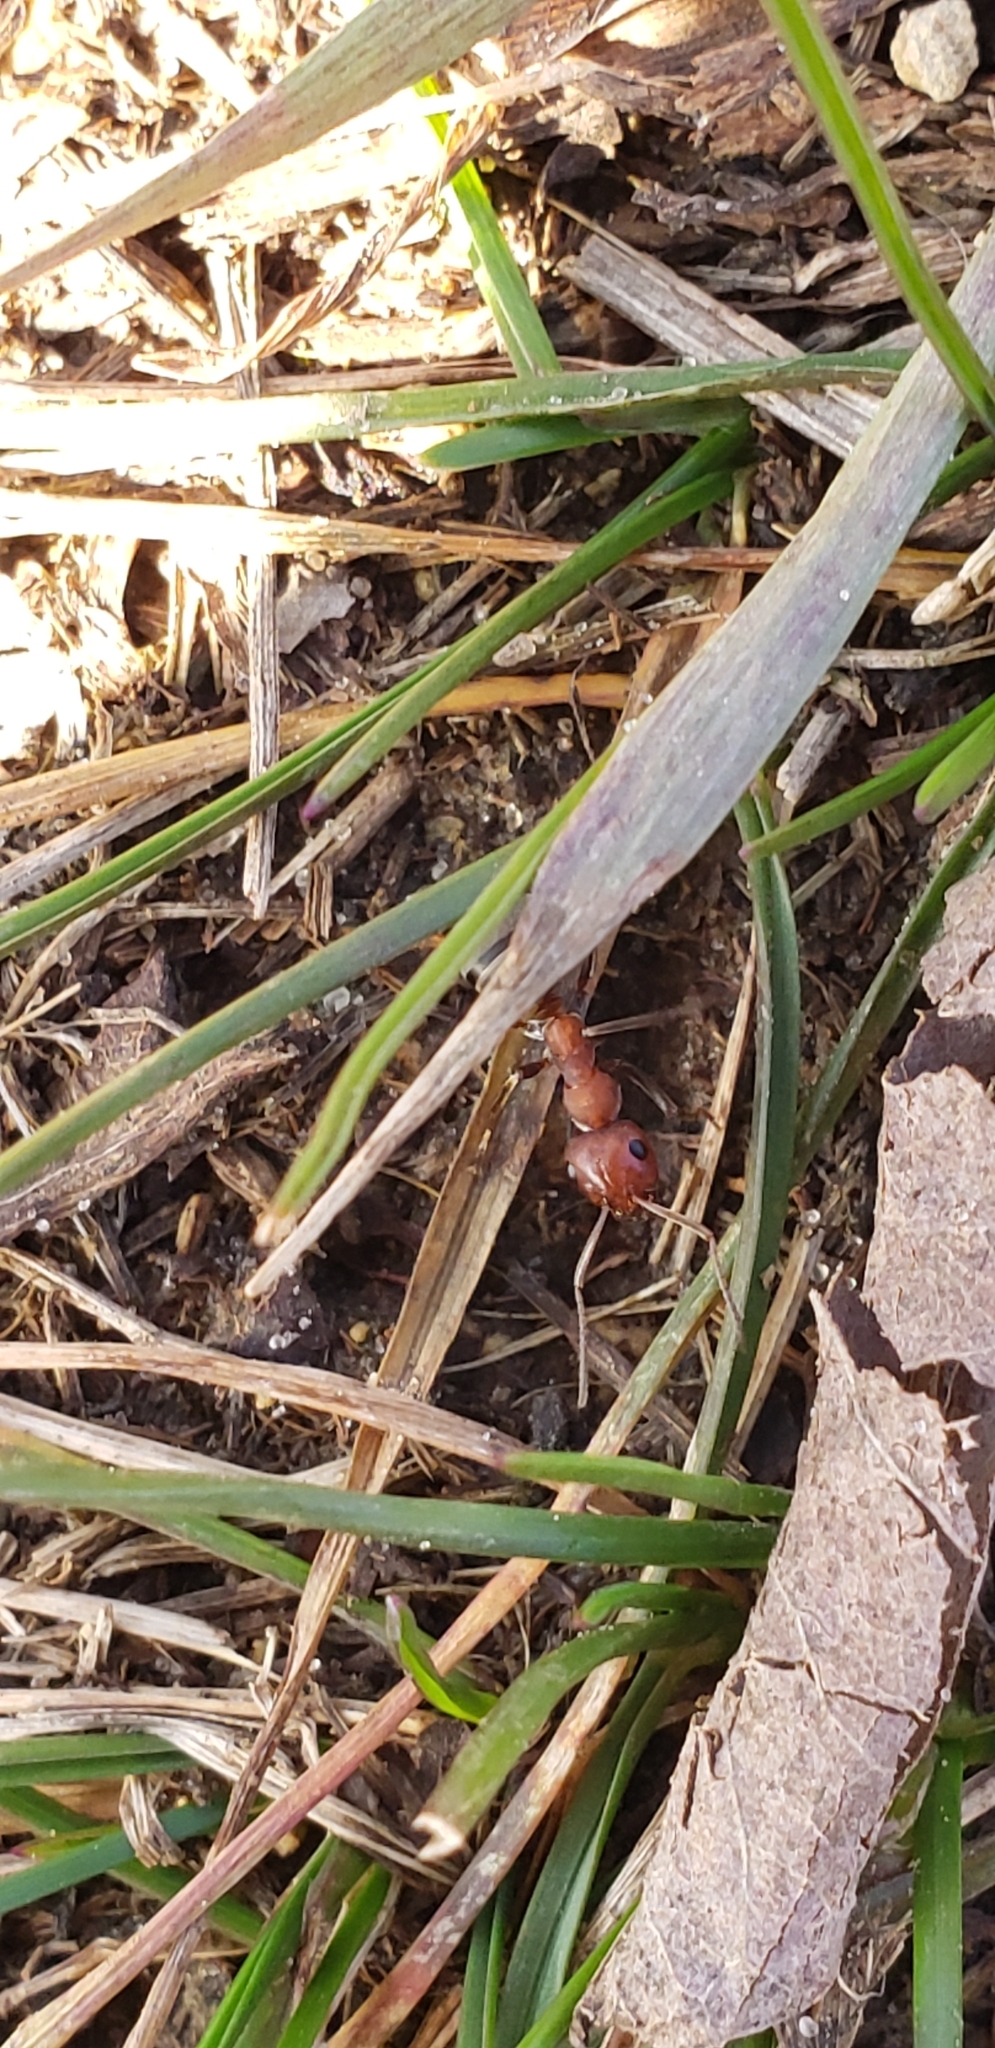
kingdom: Animalia
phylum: Arthropoda
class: Insecta
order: Hymenoptera
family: Formicidae
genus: Formica
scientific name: Formica prociliata
